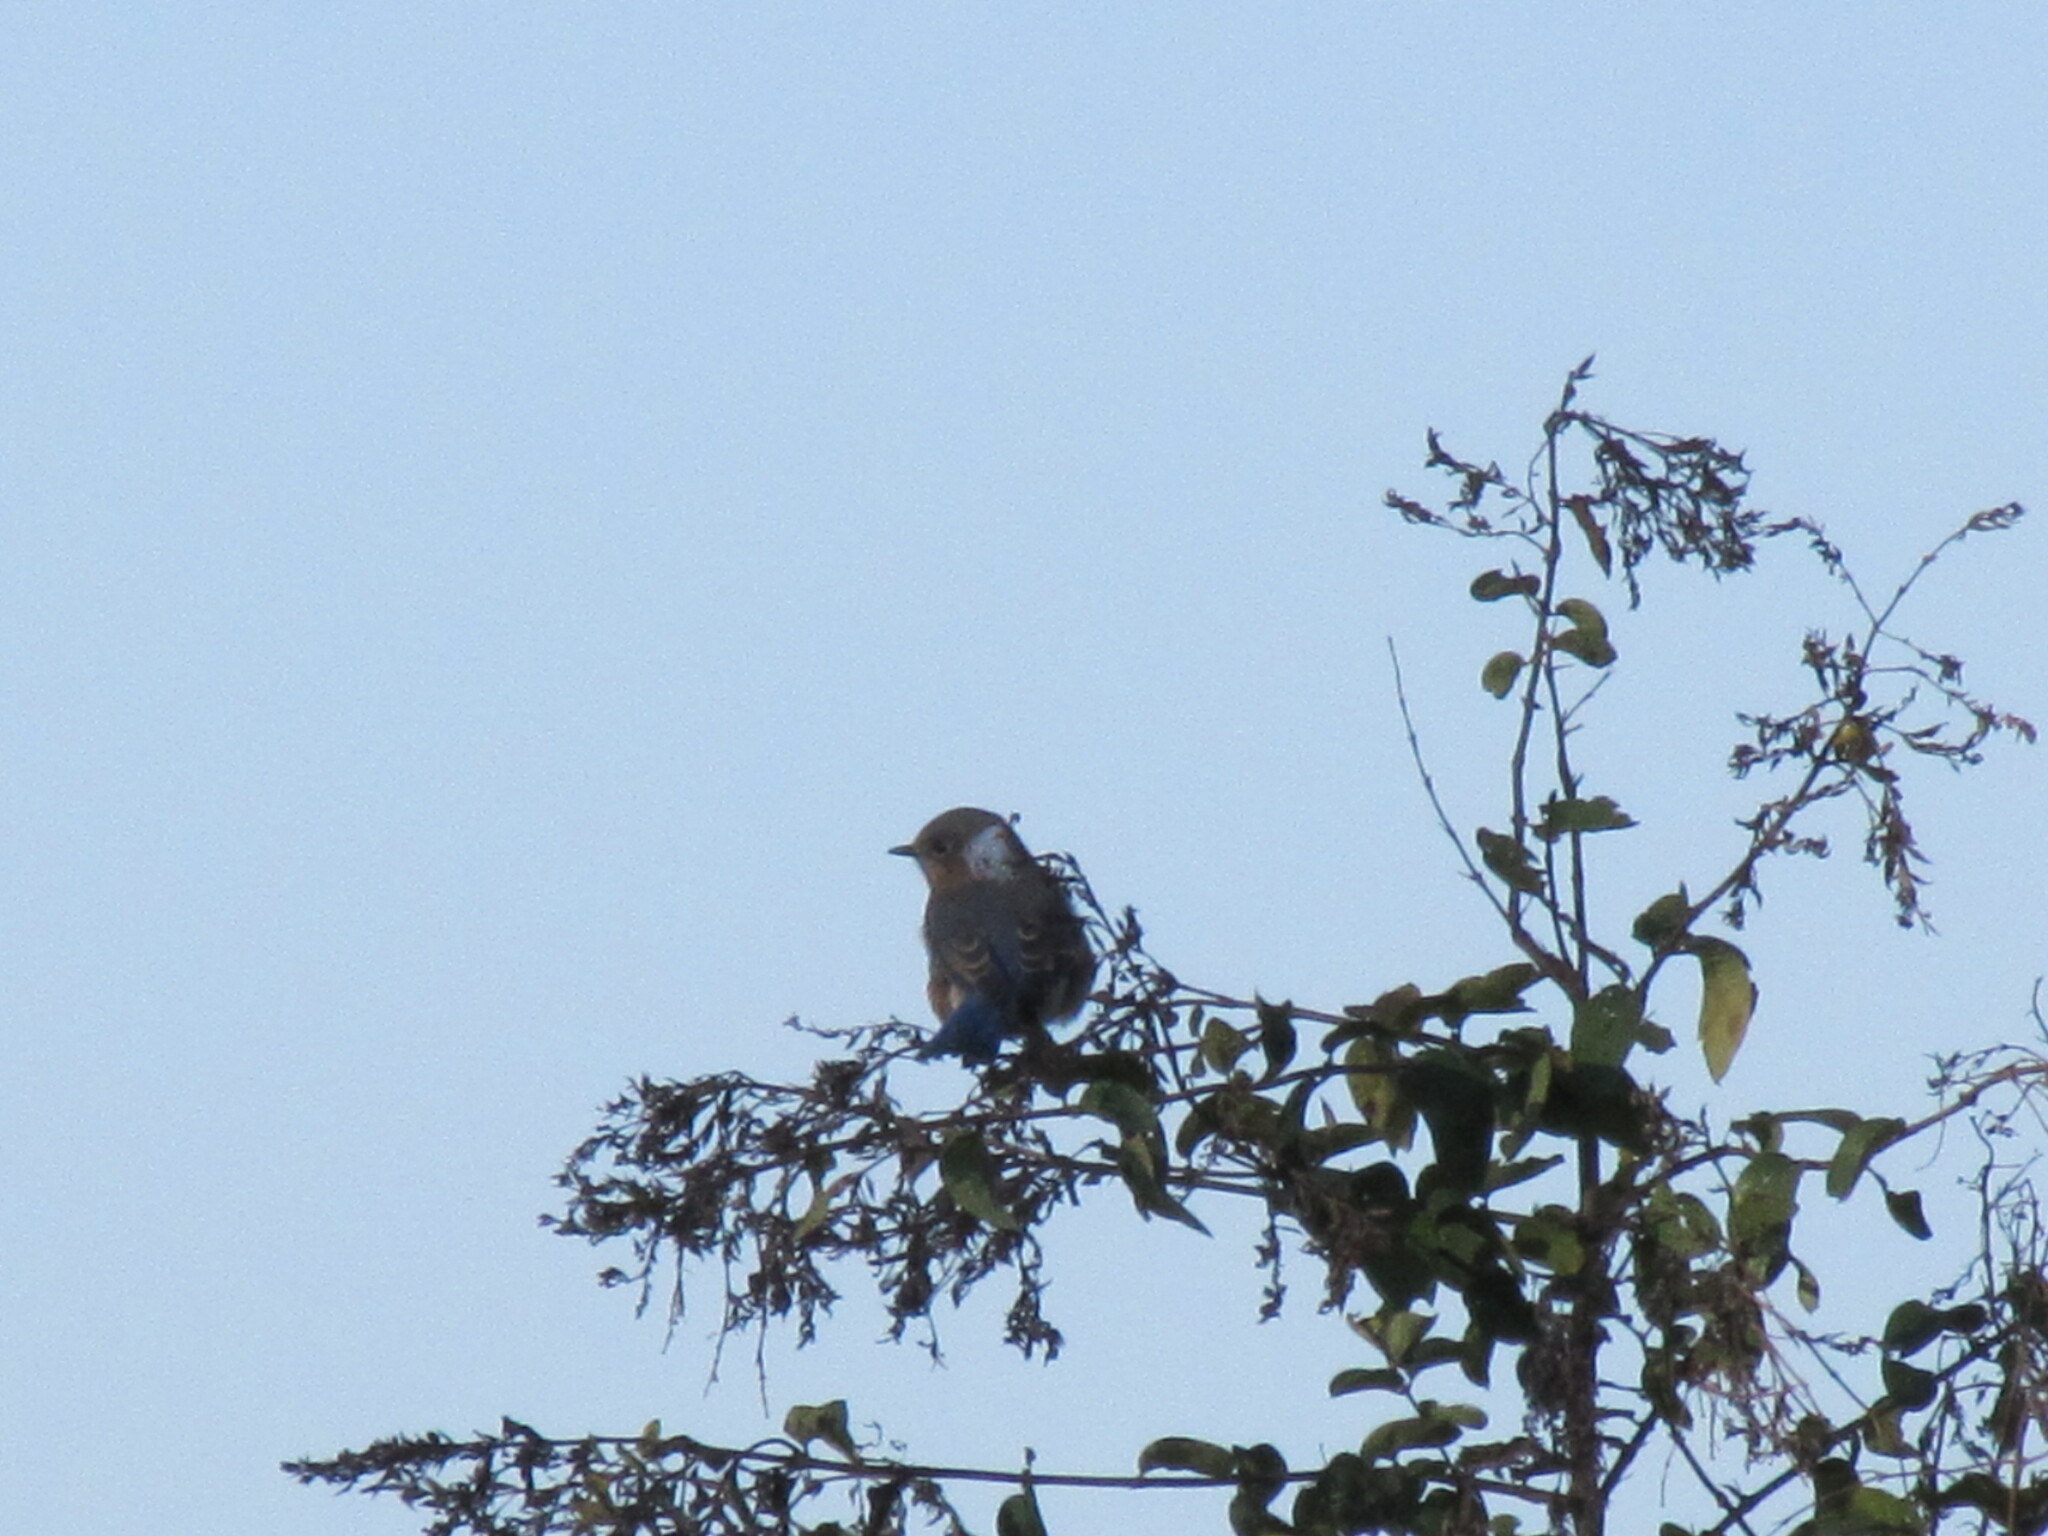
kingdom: Animalia
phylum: Chordata
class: Aves
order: Passeriformes
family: Turdidae
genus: Sialia
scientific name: Sialia sialis
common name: Eastern bluebird
